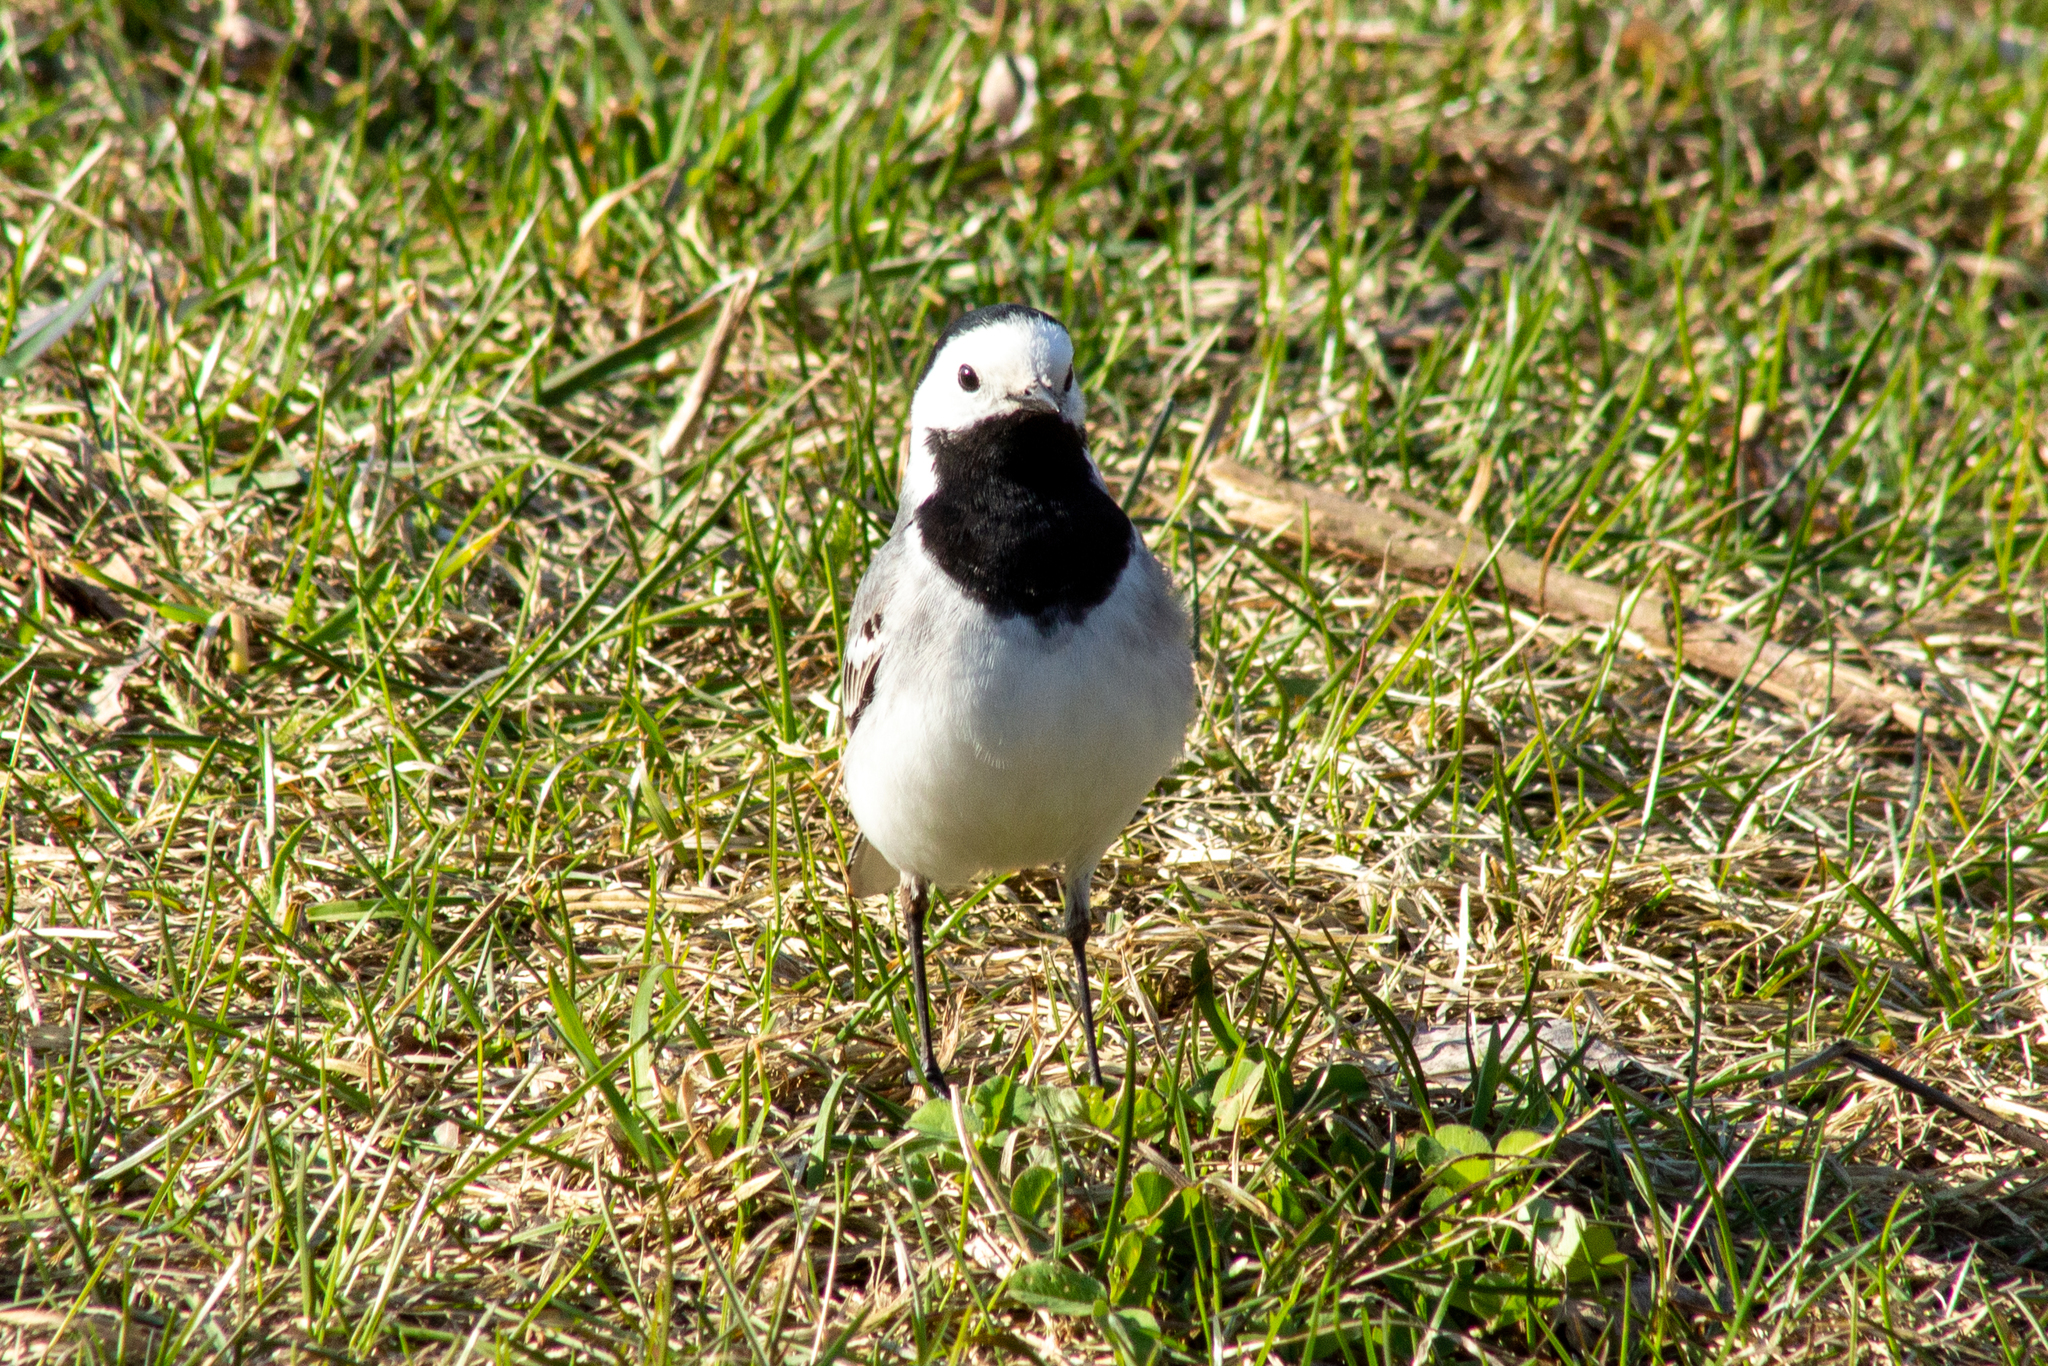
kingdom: Animalia
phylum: Chordata
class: Aves
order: Passeriformes
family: Motacillidae
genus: Motacilla
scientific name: Motacilla alba
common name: White wagtail
